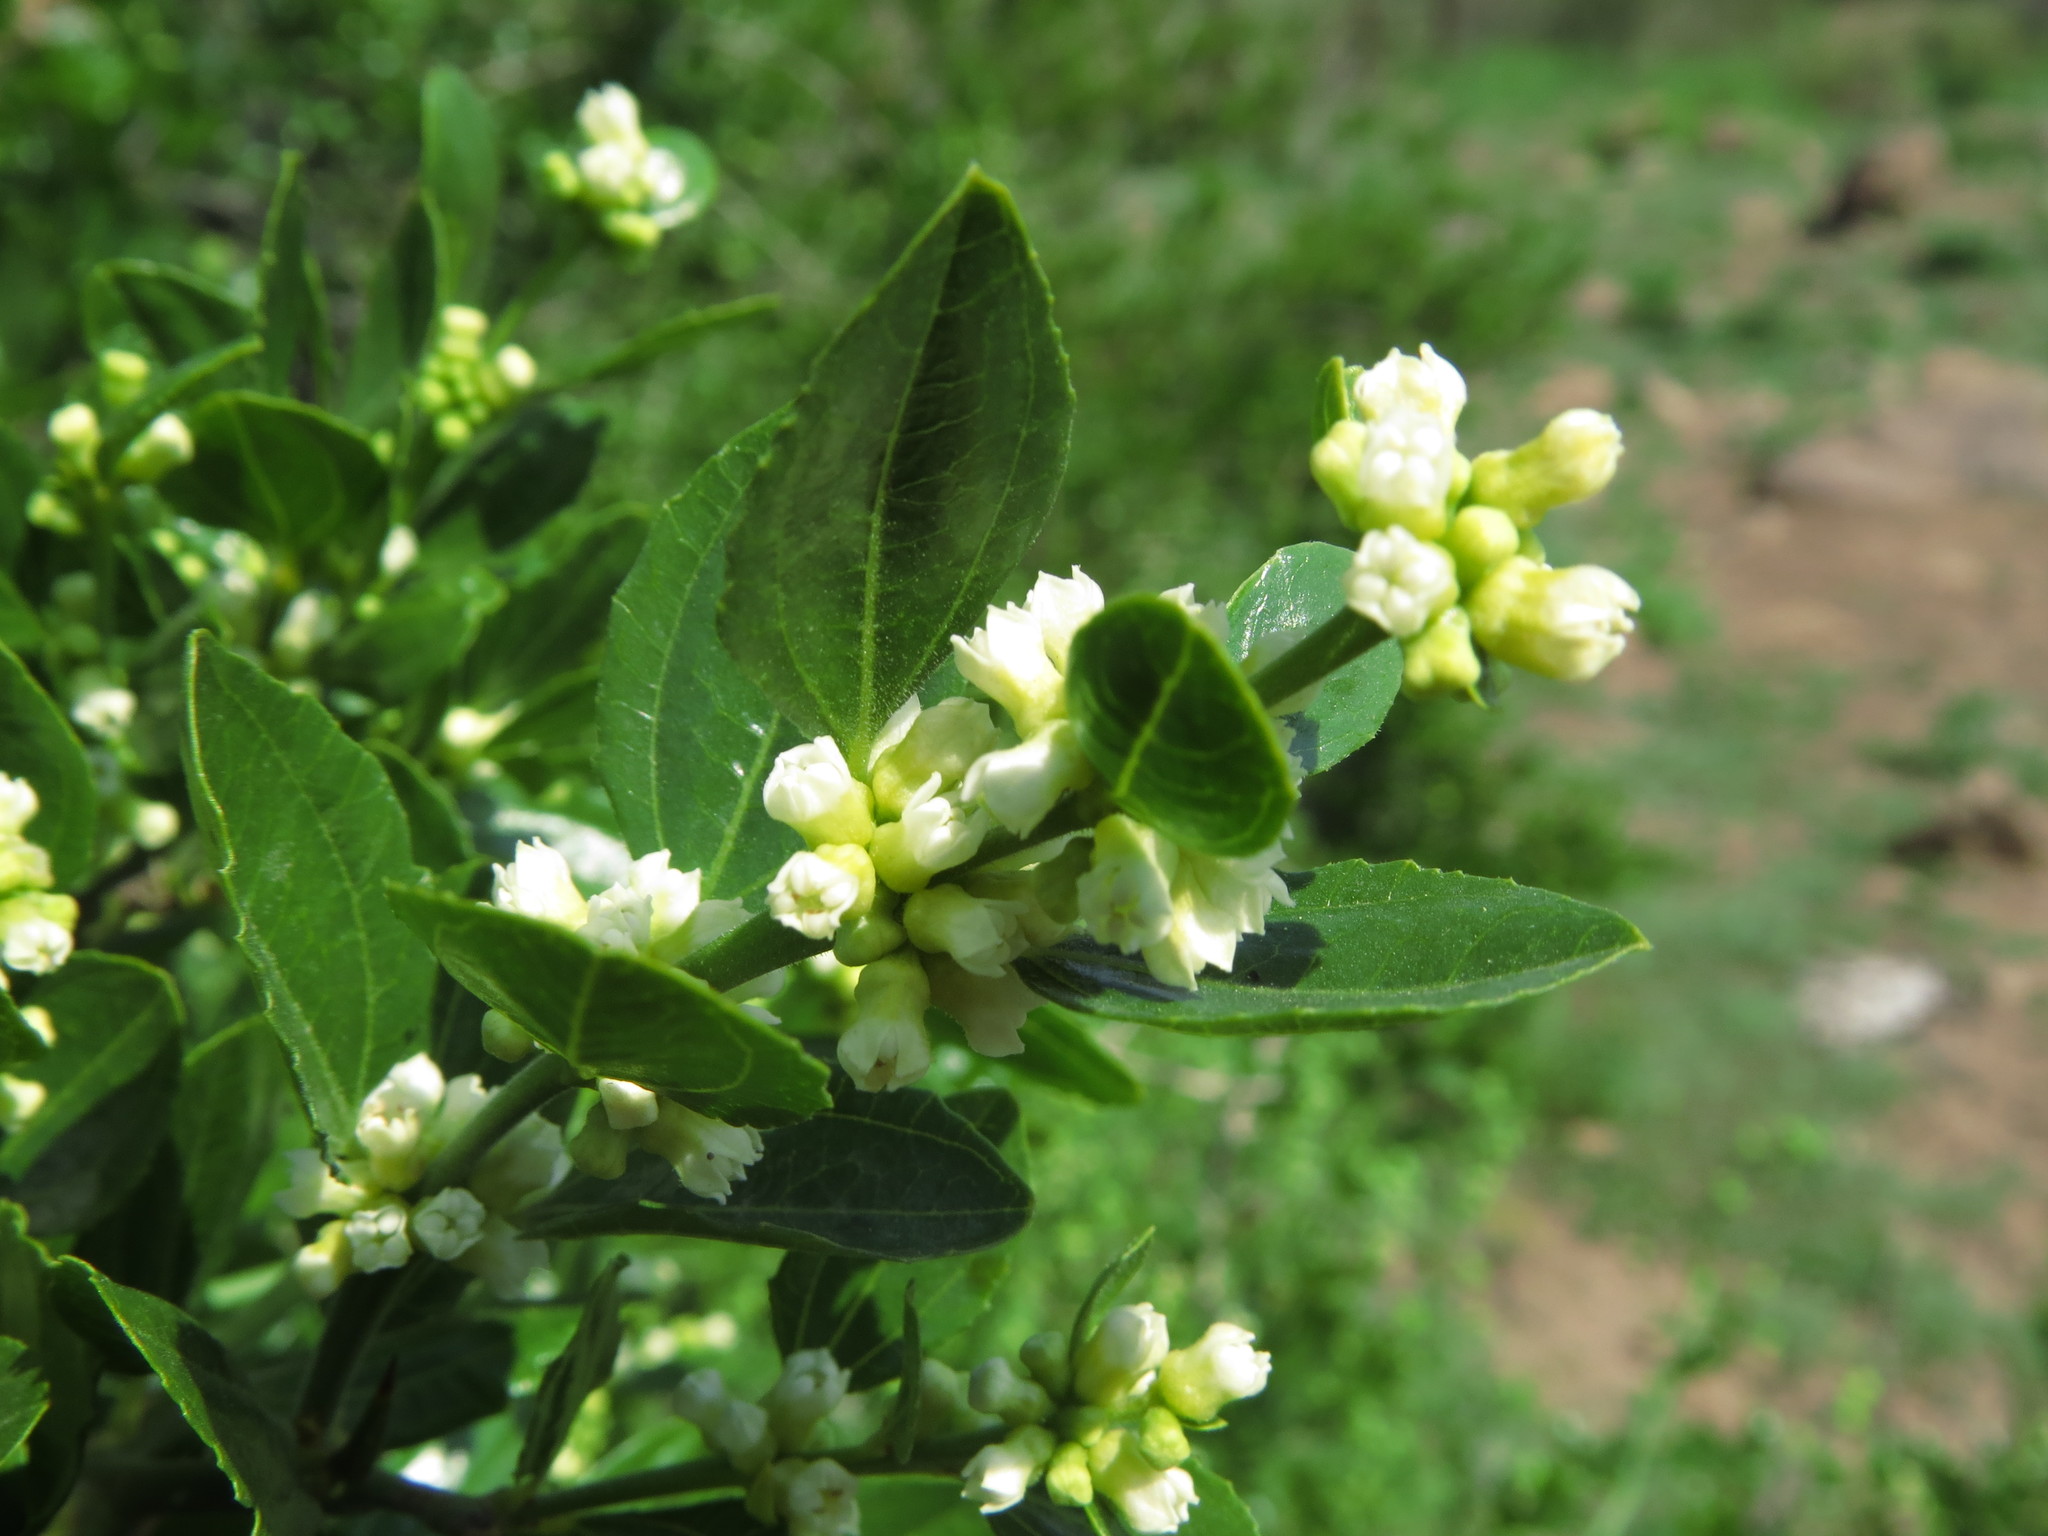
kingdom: Plantae
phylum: Tracheophyta
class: Magnoliopsida
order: Rosales
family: Rhamnaceae
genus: Retanilla
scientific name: Retanilla trinervia
